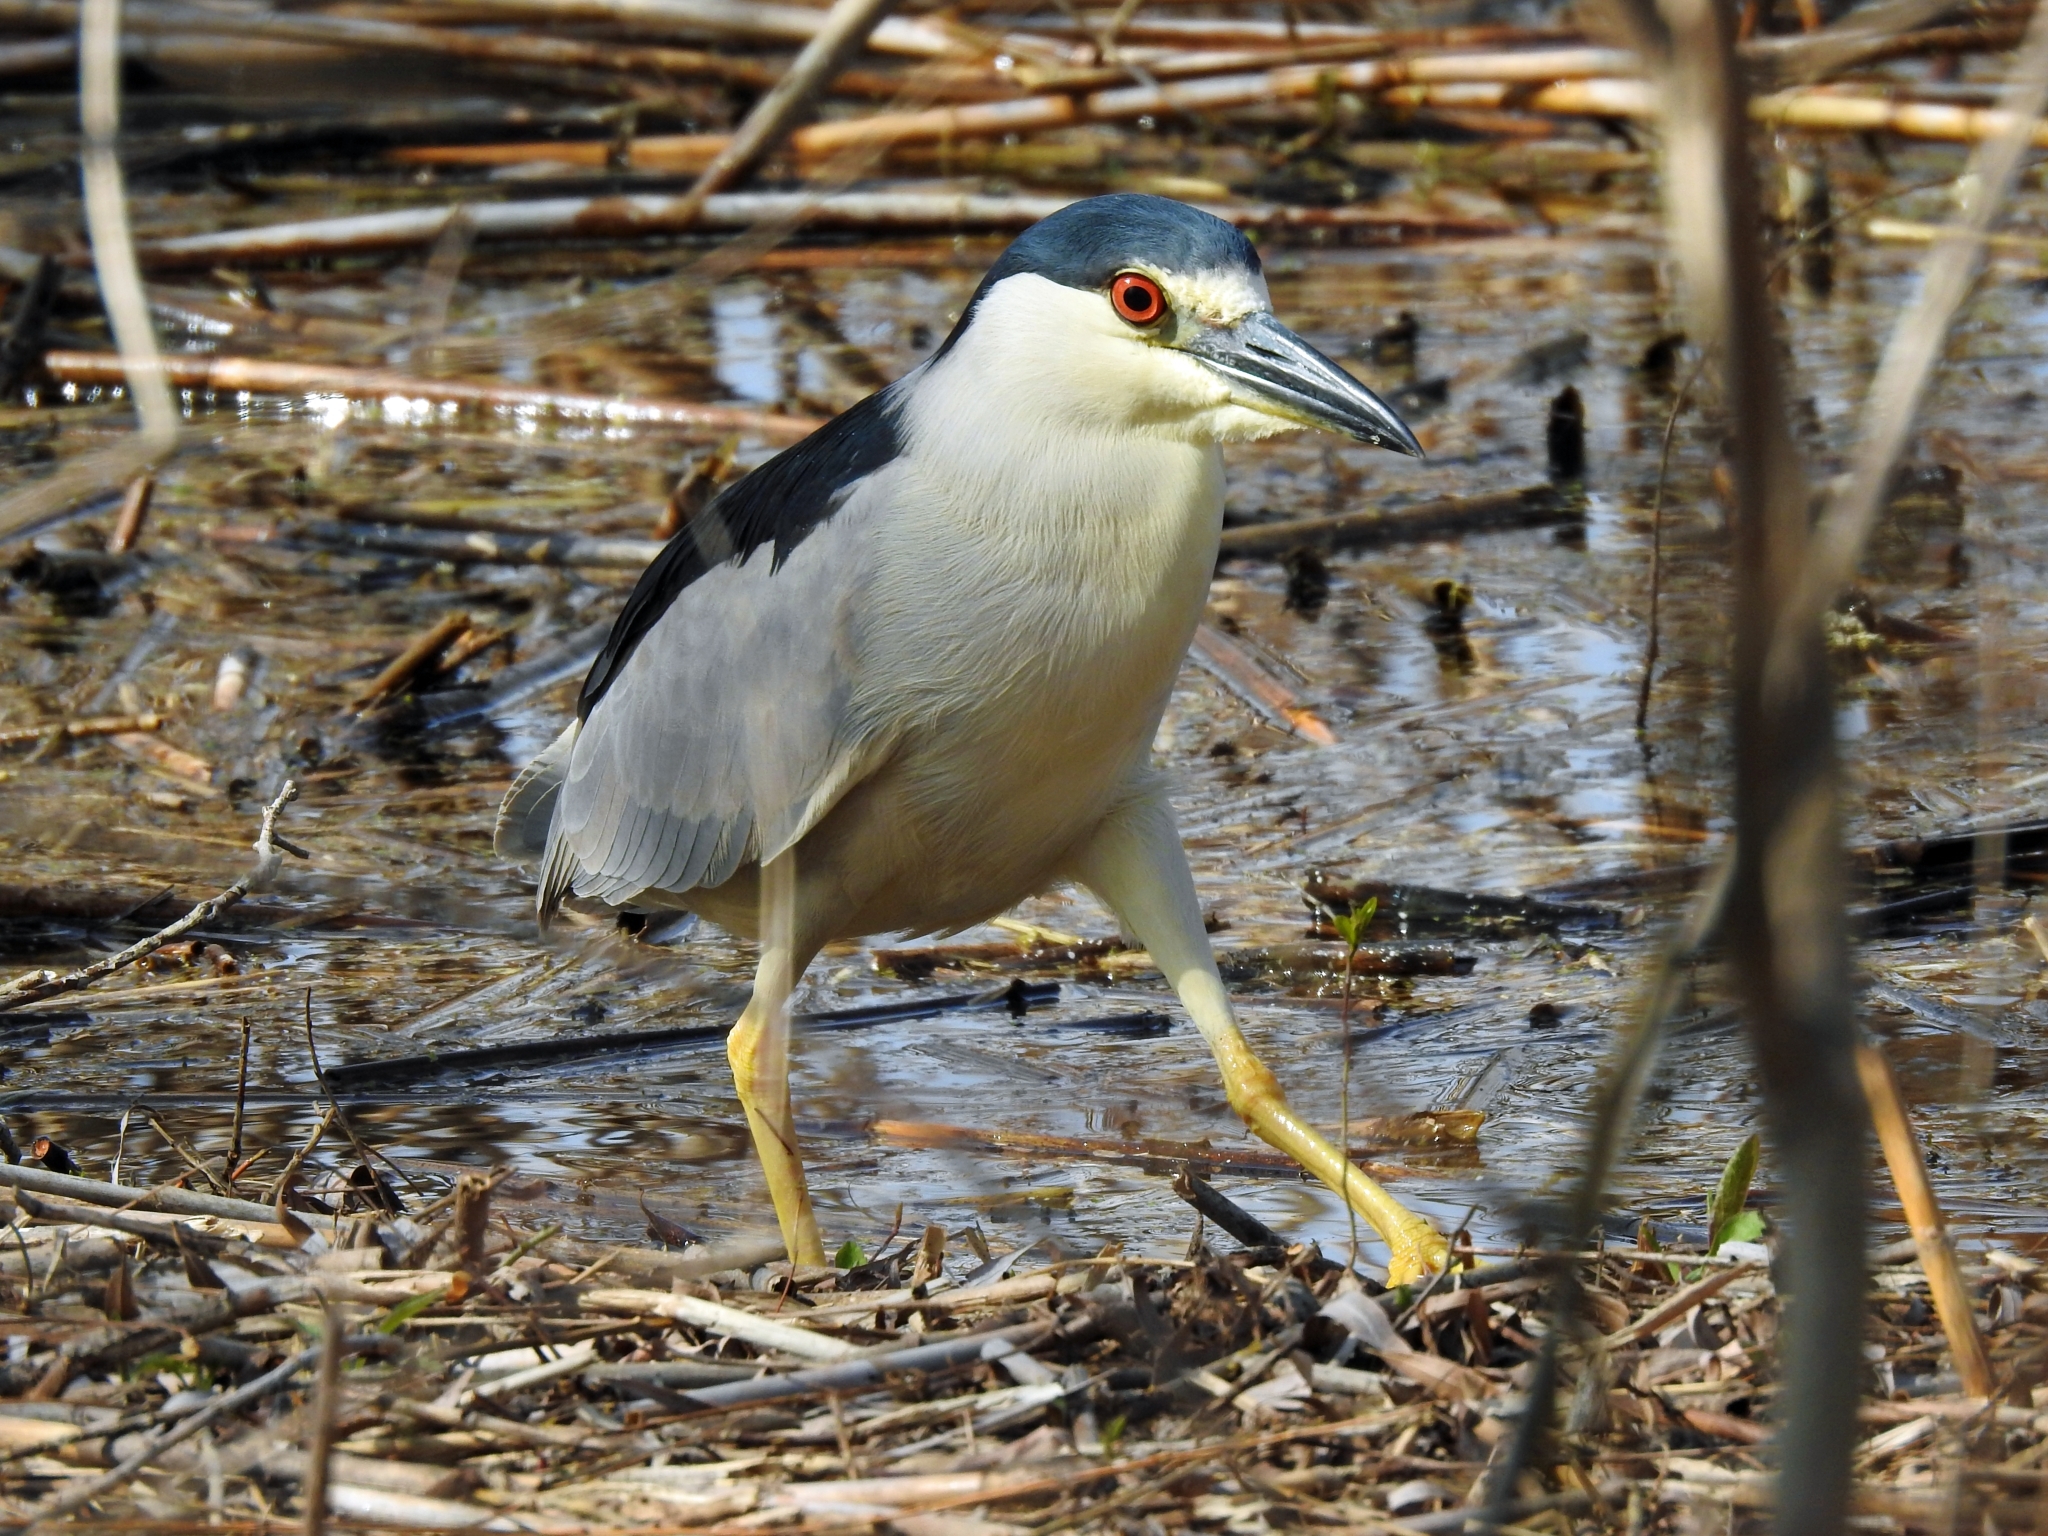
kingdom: Animalia
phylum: Chordata
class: Aves
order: Pelecaniformes
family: Ardeidae
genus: Nycticorax
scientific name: Nycticorax nycticorax
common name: Black-crowned night heron
